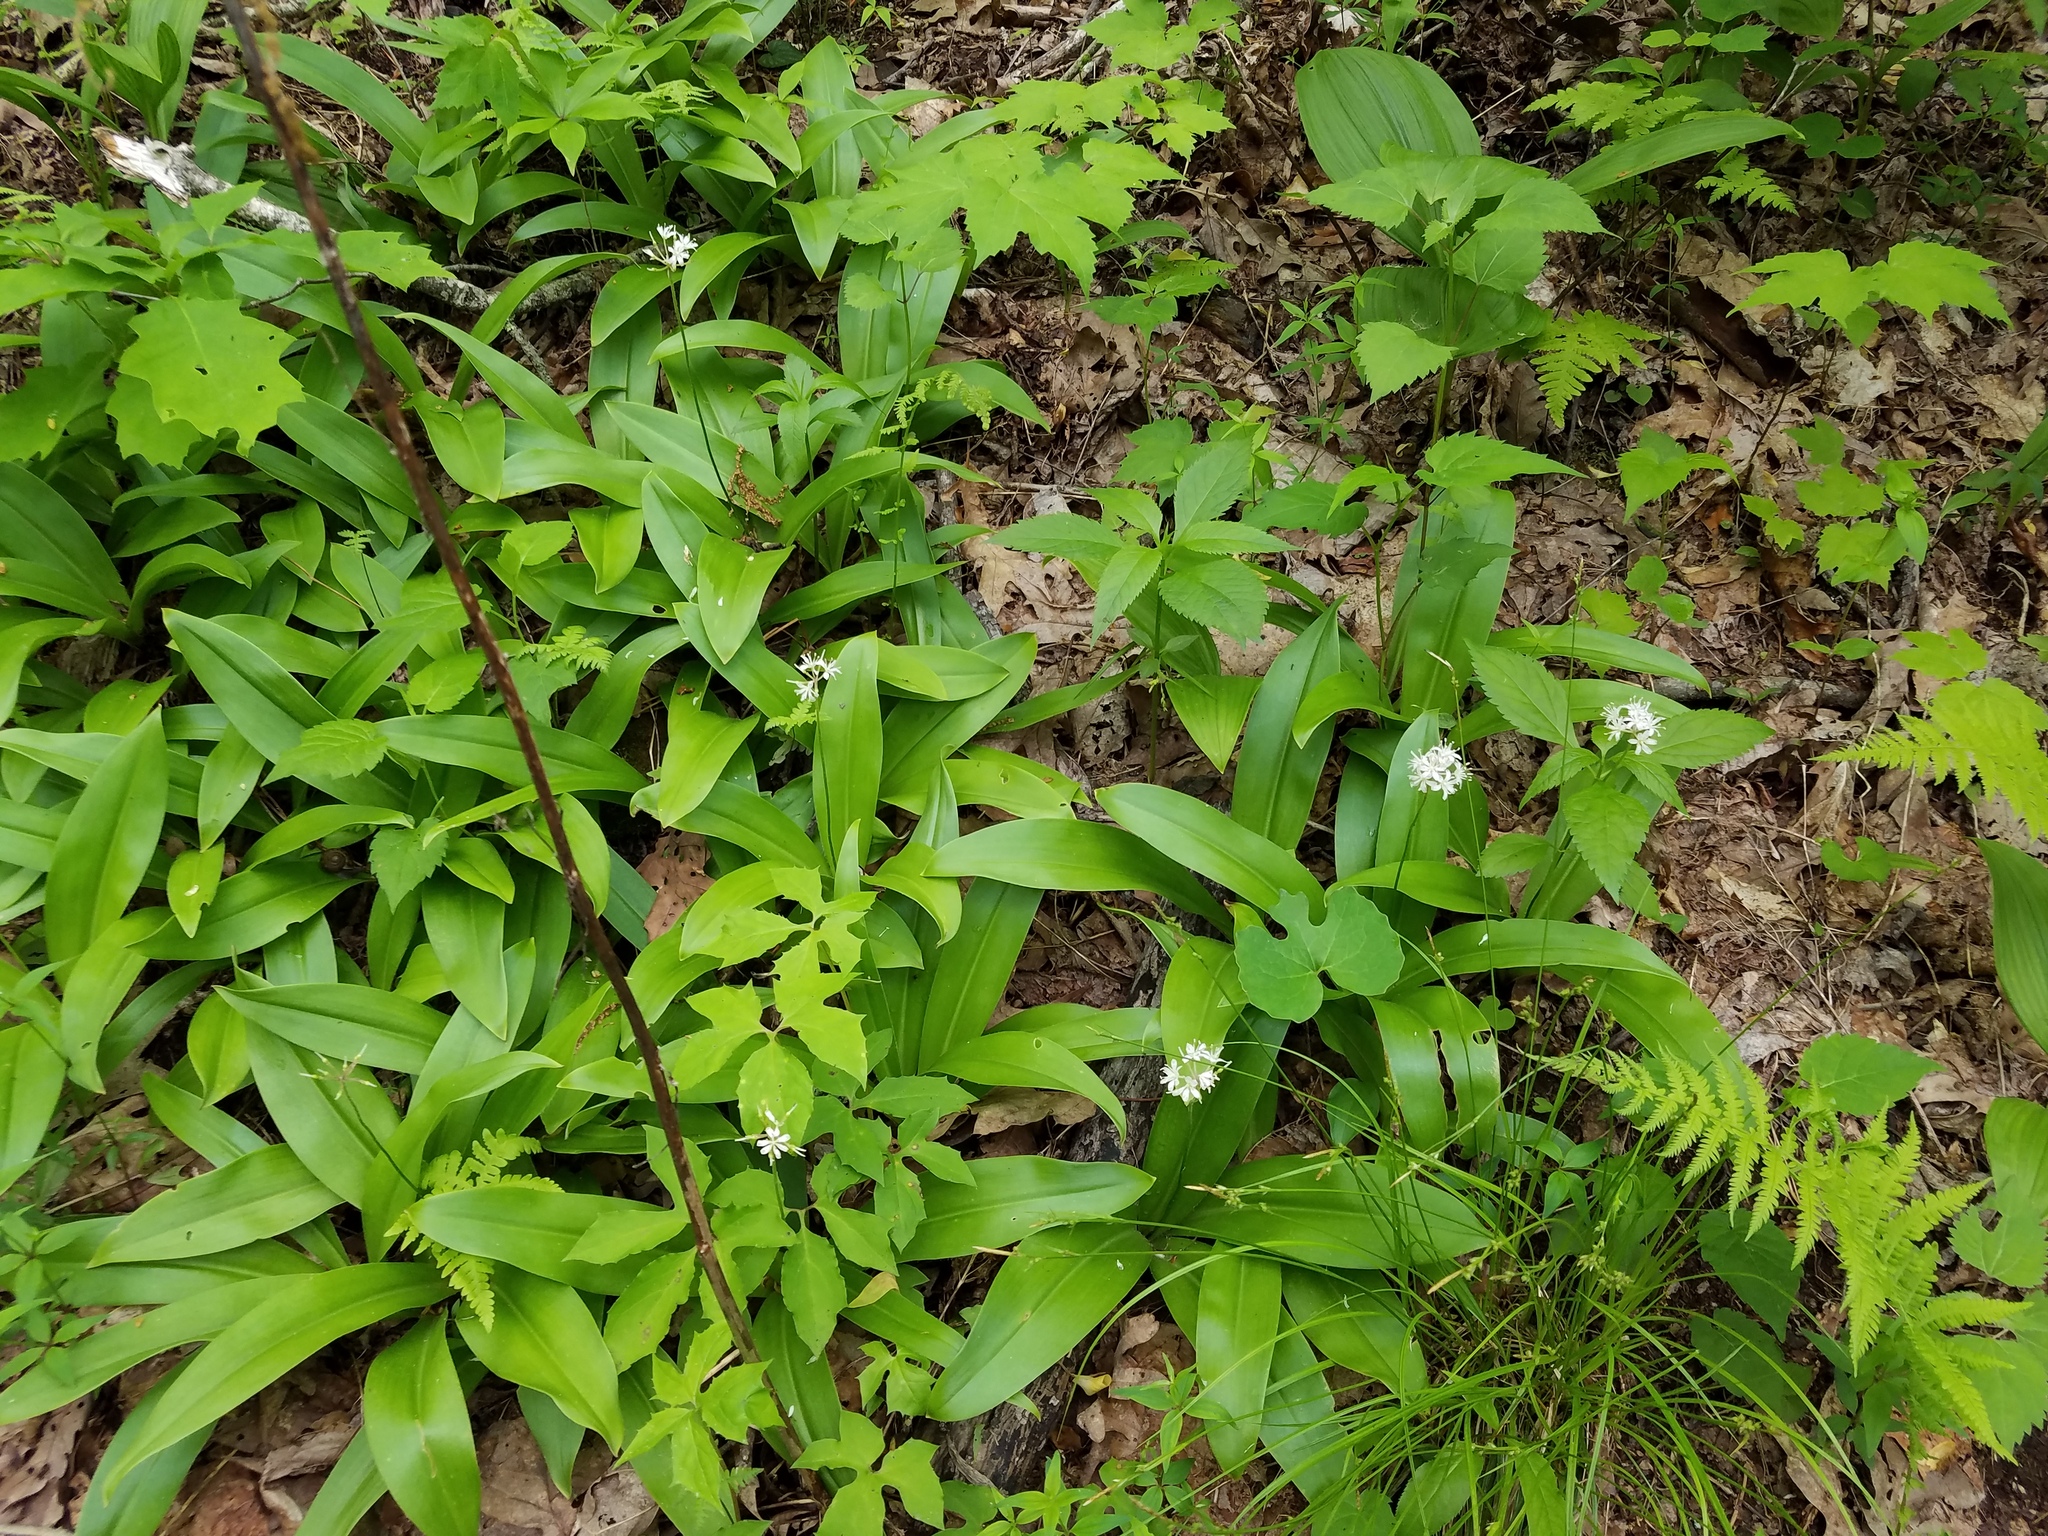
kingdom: Plantae
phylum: Tracheophyta
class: Liliopsida
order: Liliales
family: Liliaceae
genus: Clintonia
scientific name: Clintonia umbellulata
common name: Speckle wood-lily
